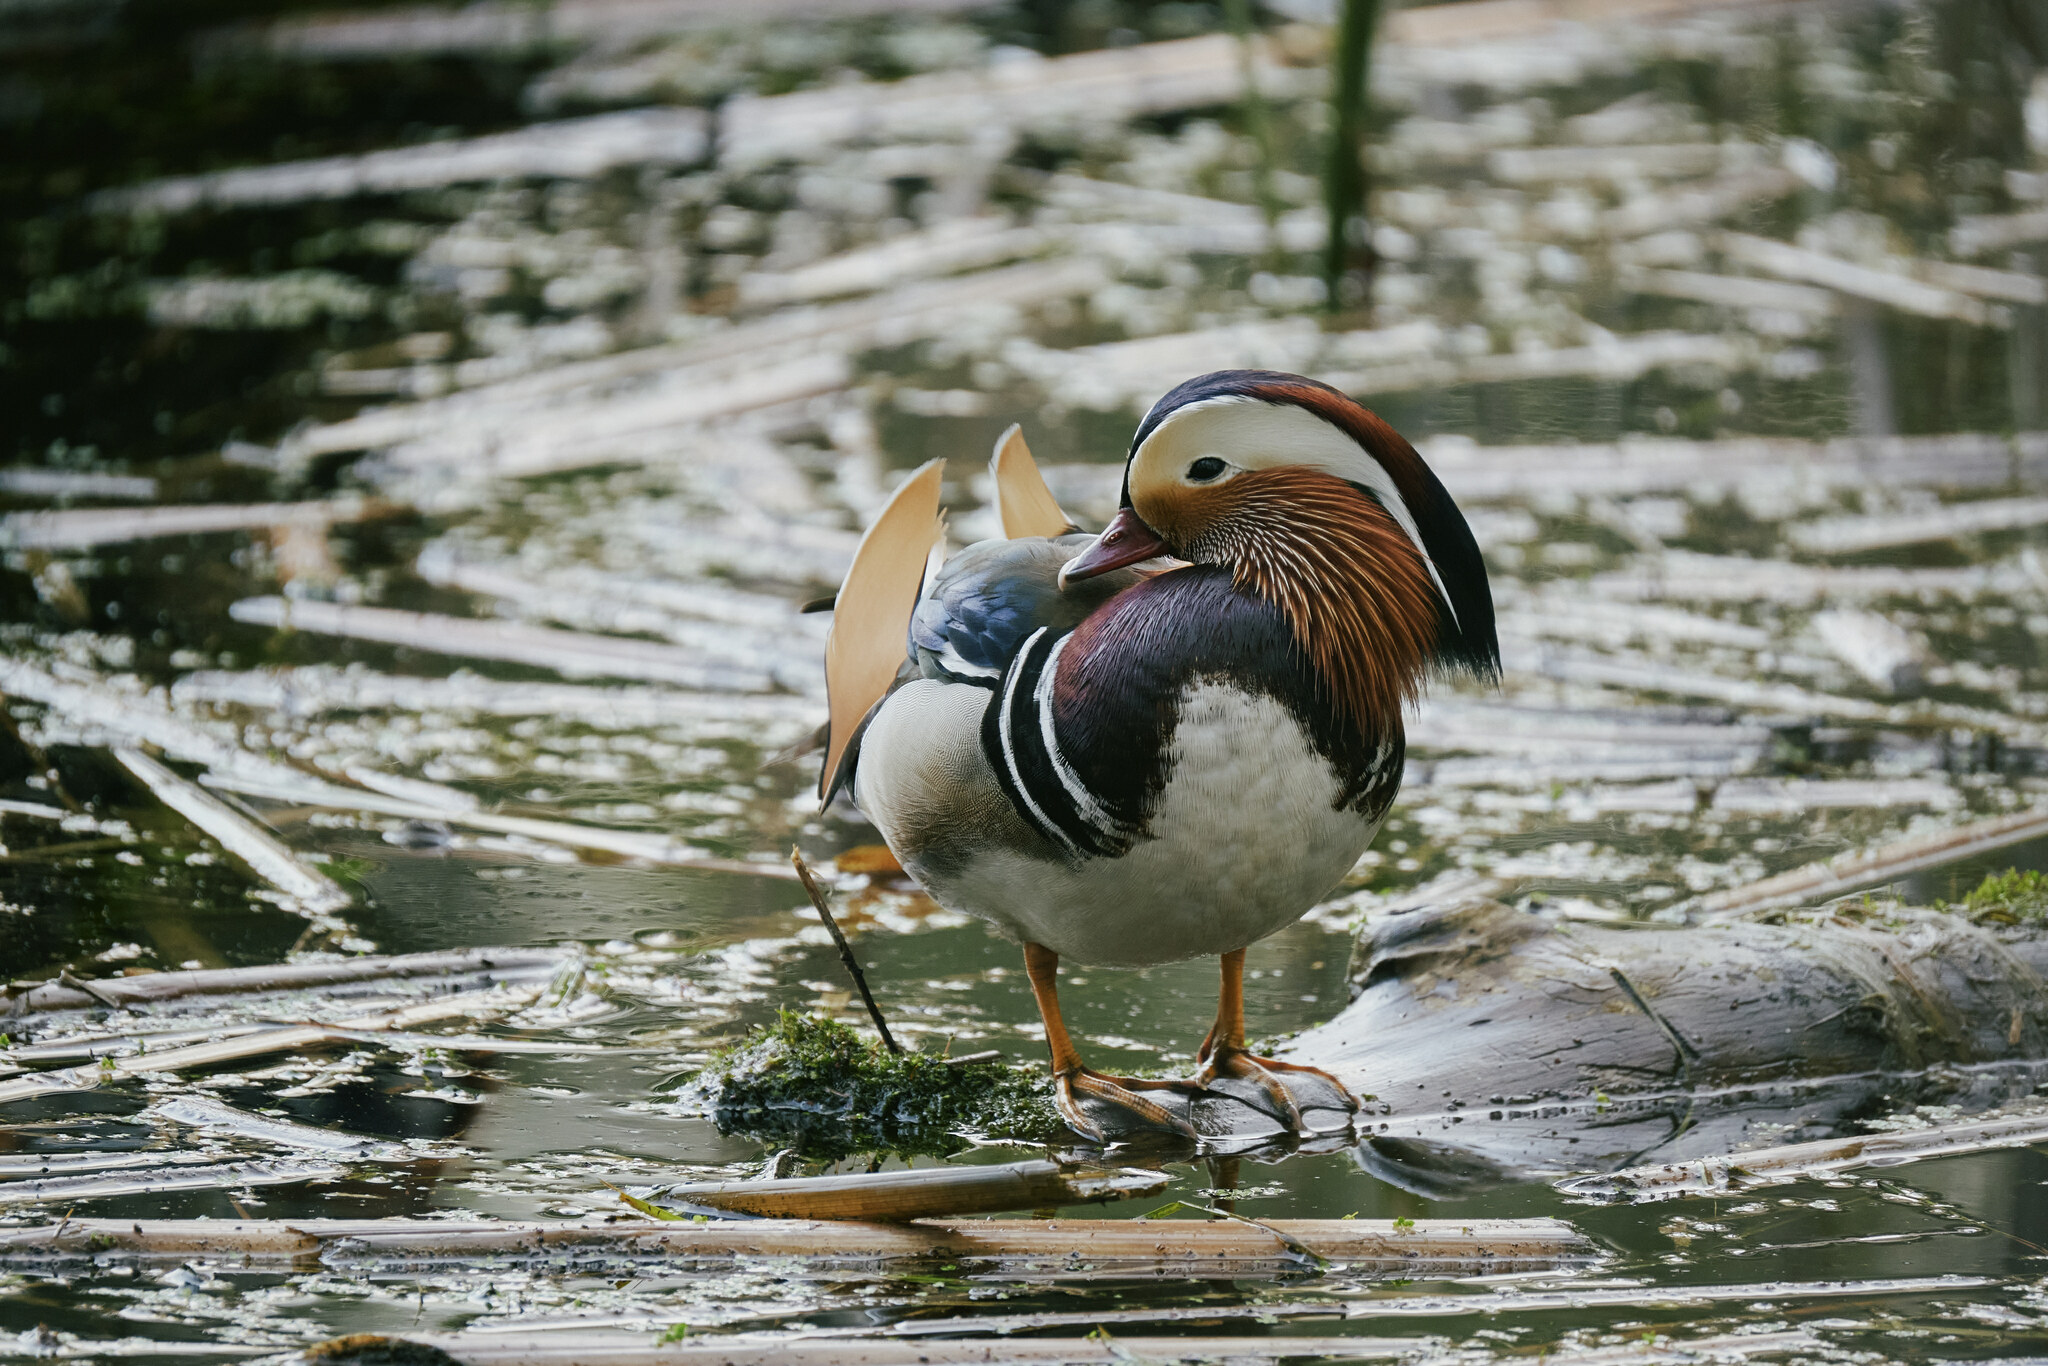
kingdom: Animalia
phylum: Chordata
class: Aves
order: Anseriformes
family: Anatidae
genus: Aix
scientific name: Aix galericulata
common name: Mandarin duck
